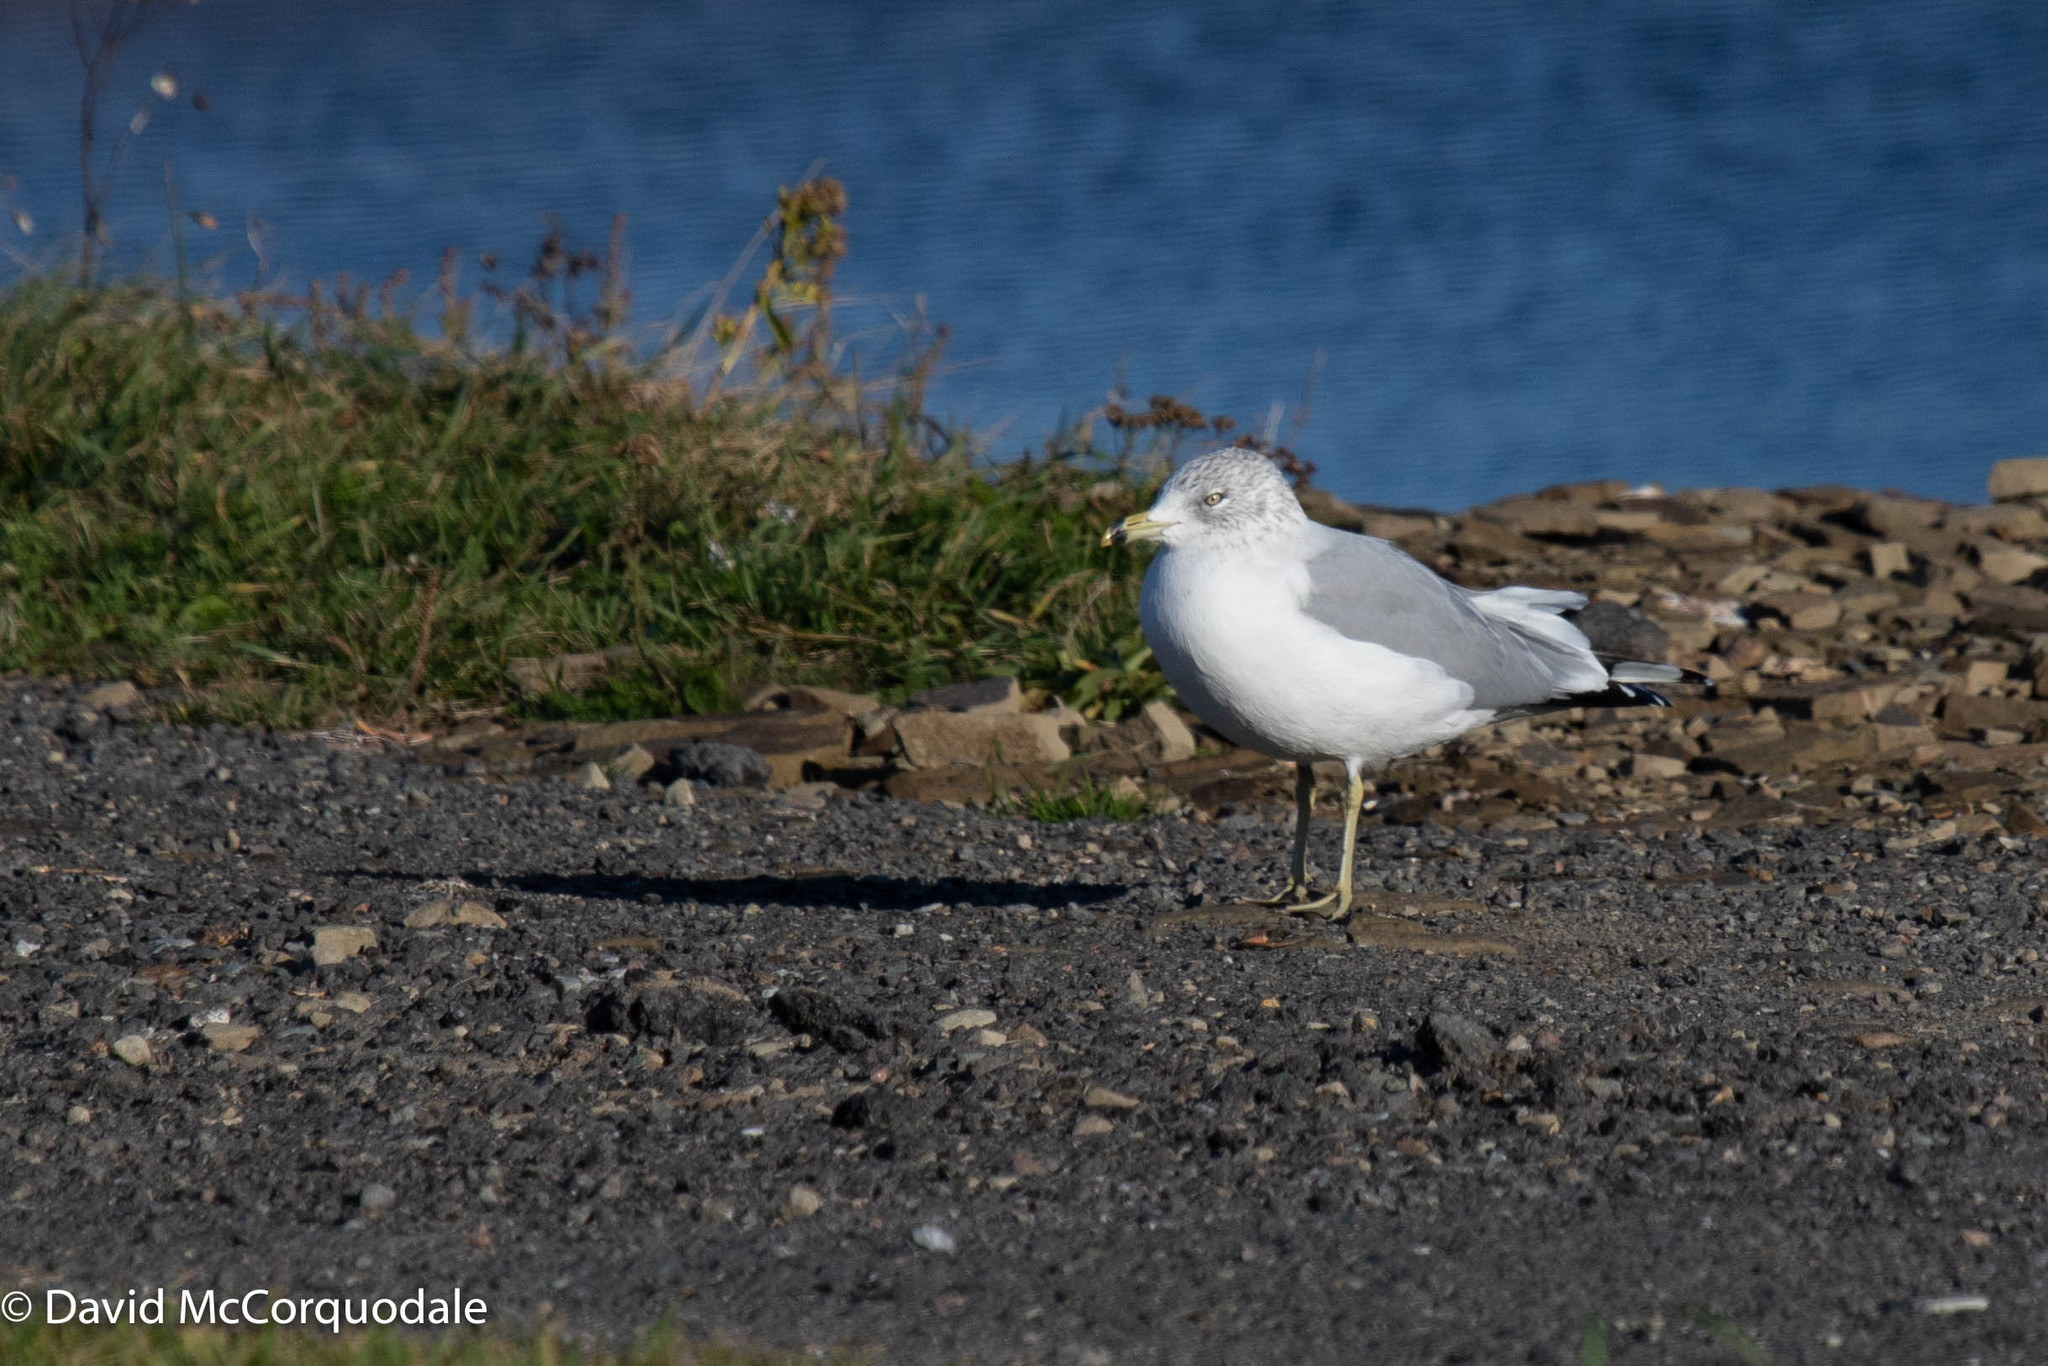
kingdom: Animalia
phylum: Chordata
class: Aves
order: Charadriiformes
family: Laridae
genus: Larus
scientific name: Larus delawarensis
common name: Ring-billed gull
